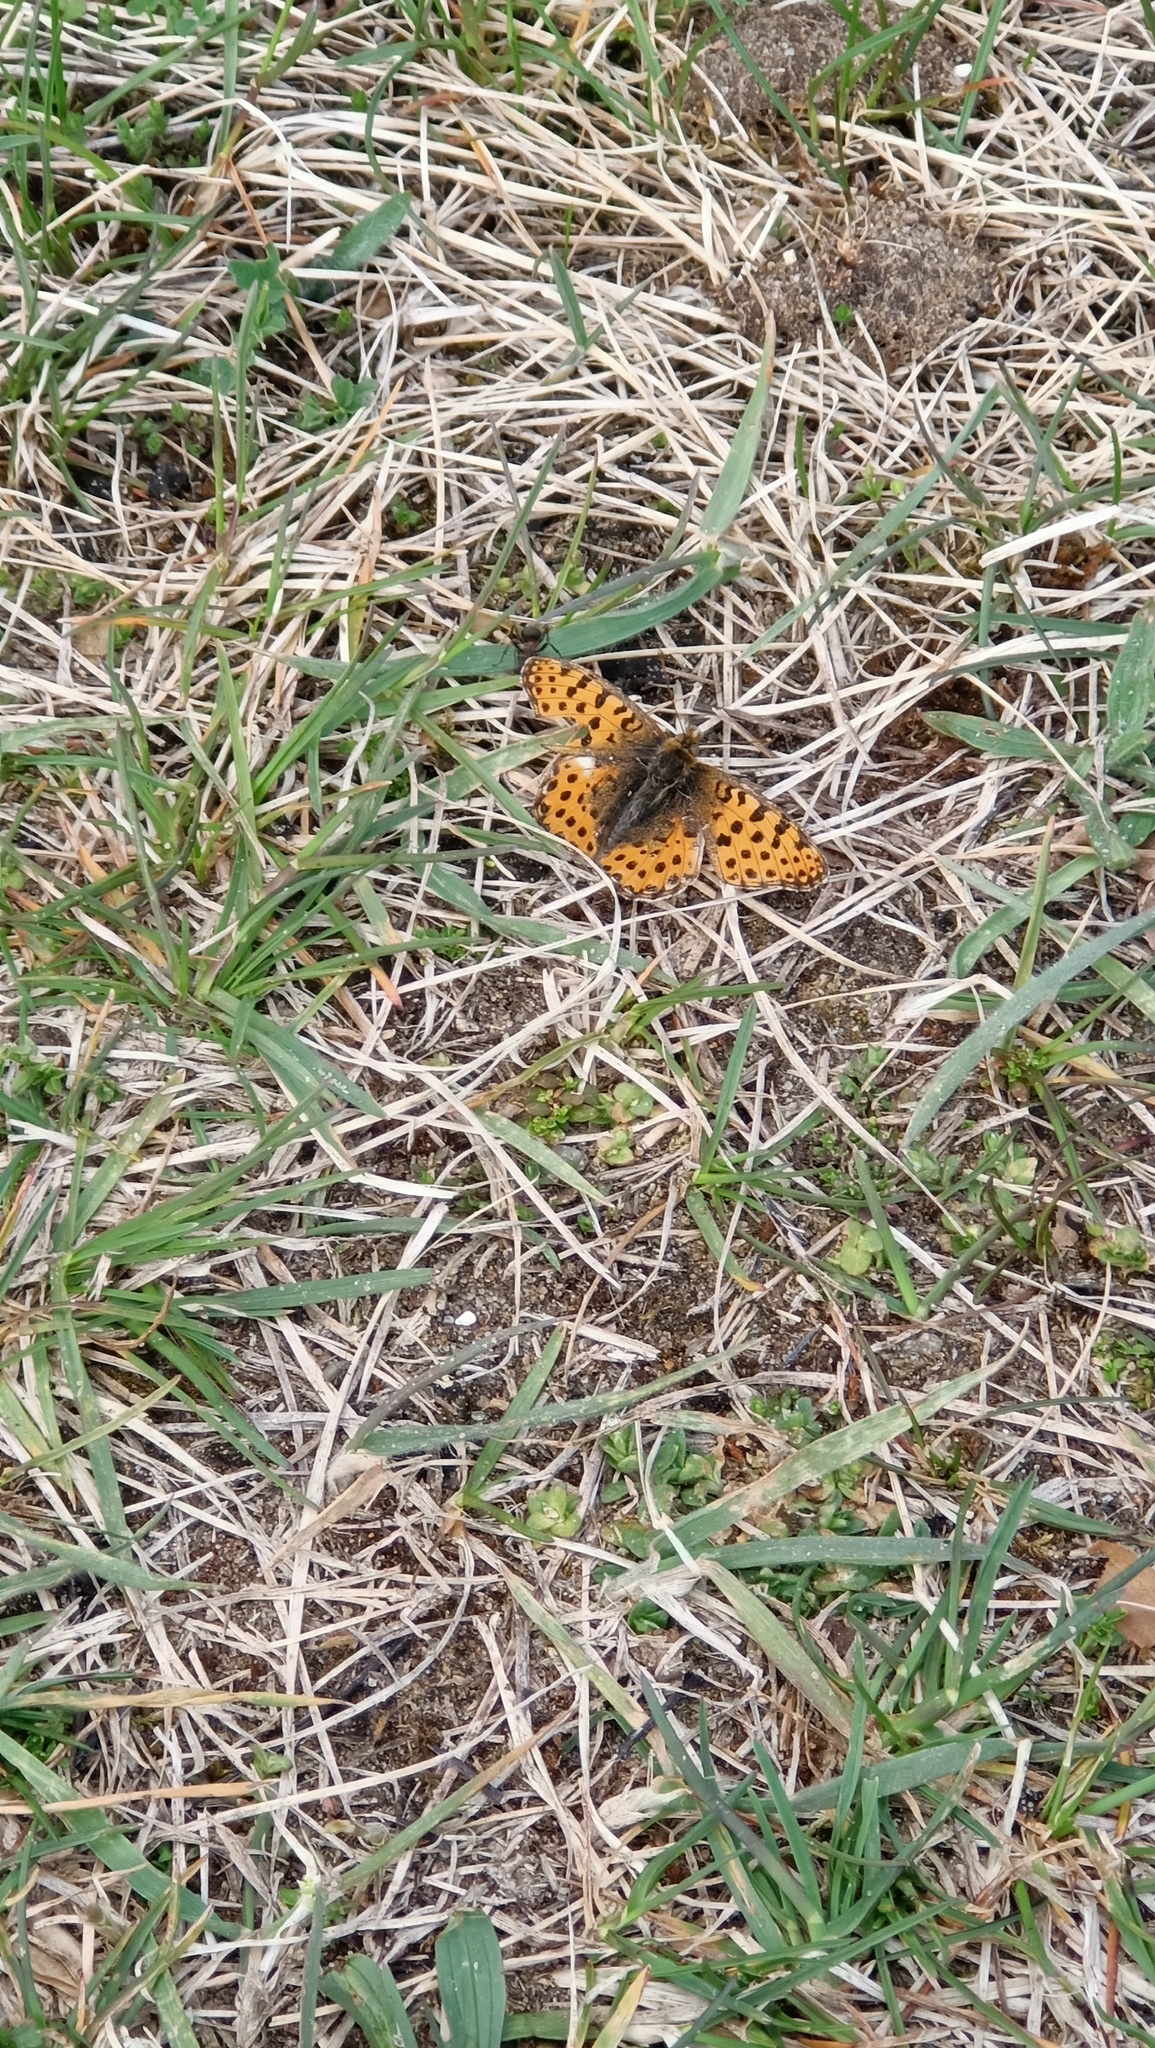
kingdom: Animalia
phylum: Arthropoda
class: Insecta
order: Lepidoptera
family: Nymphalidae
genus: Issoria
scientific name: Issoria lathonia
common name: Queen of spain fritillary
